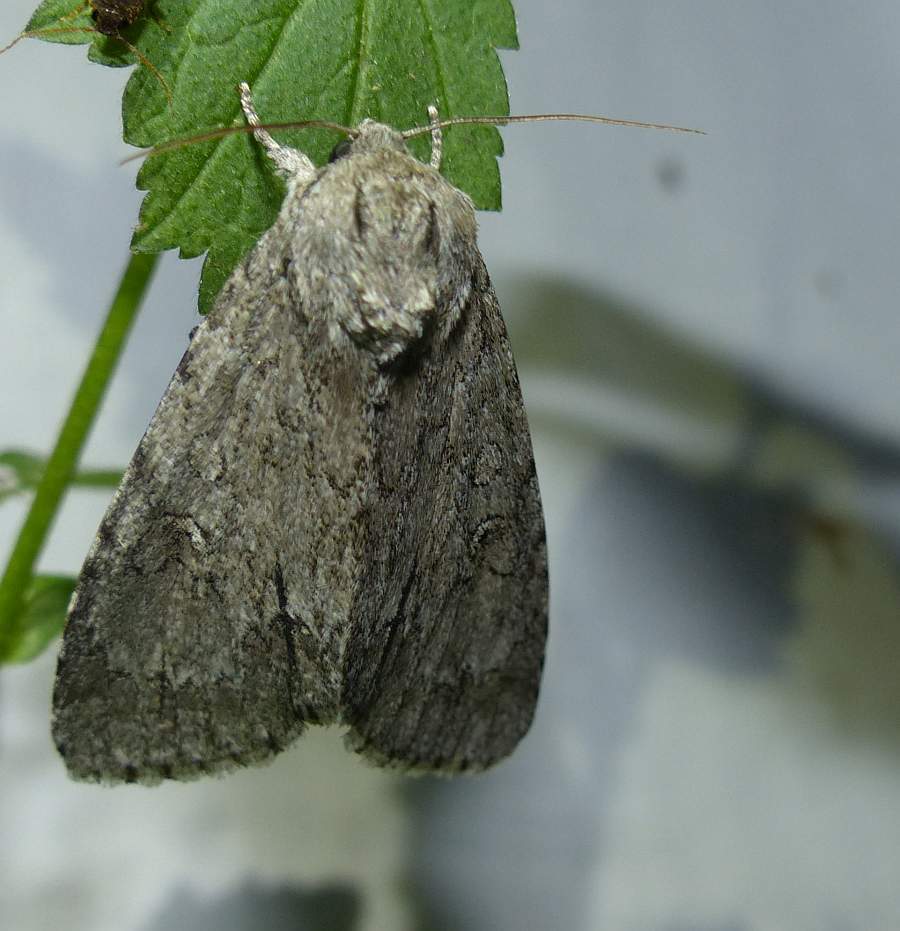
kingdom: Animalia
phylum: Arthropoda
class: Insecta
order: Lepidoptera
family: Noctuidae
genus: Acronicta
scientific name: Acronicta americana
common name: American dagger
